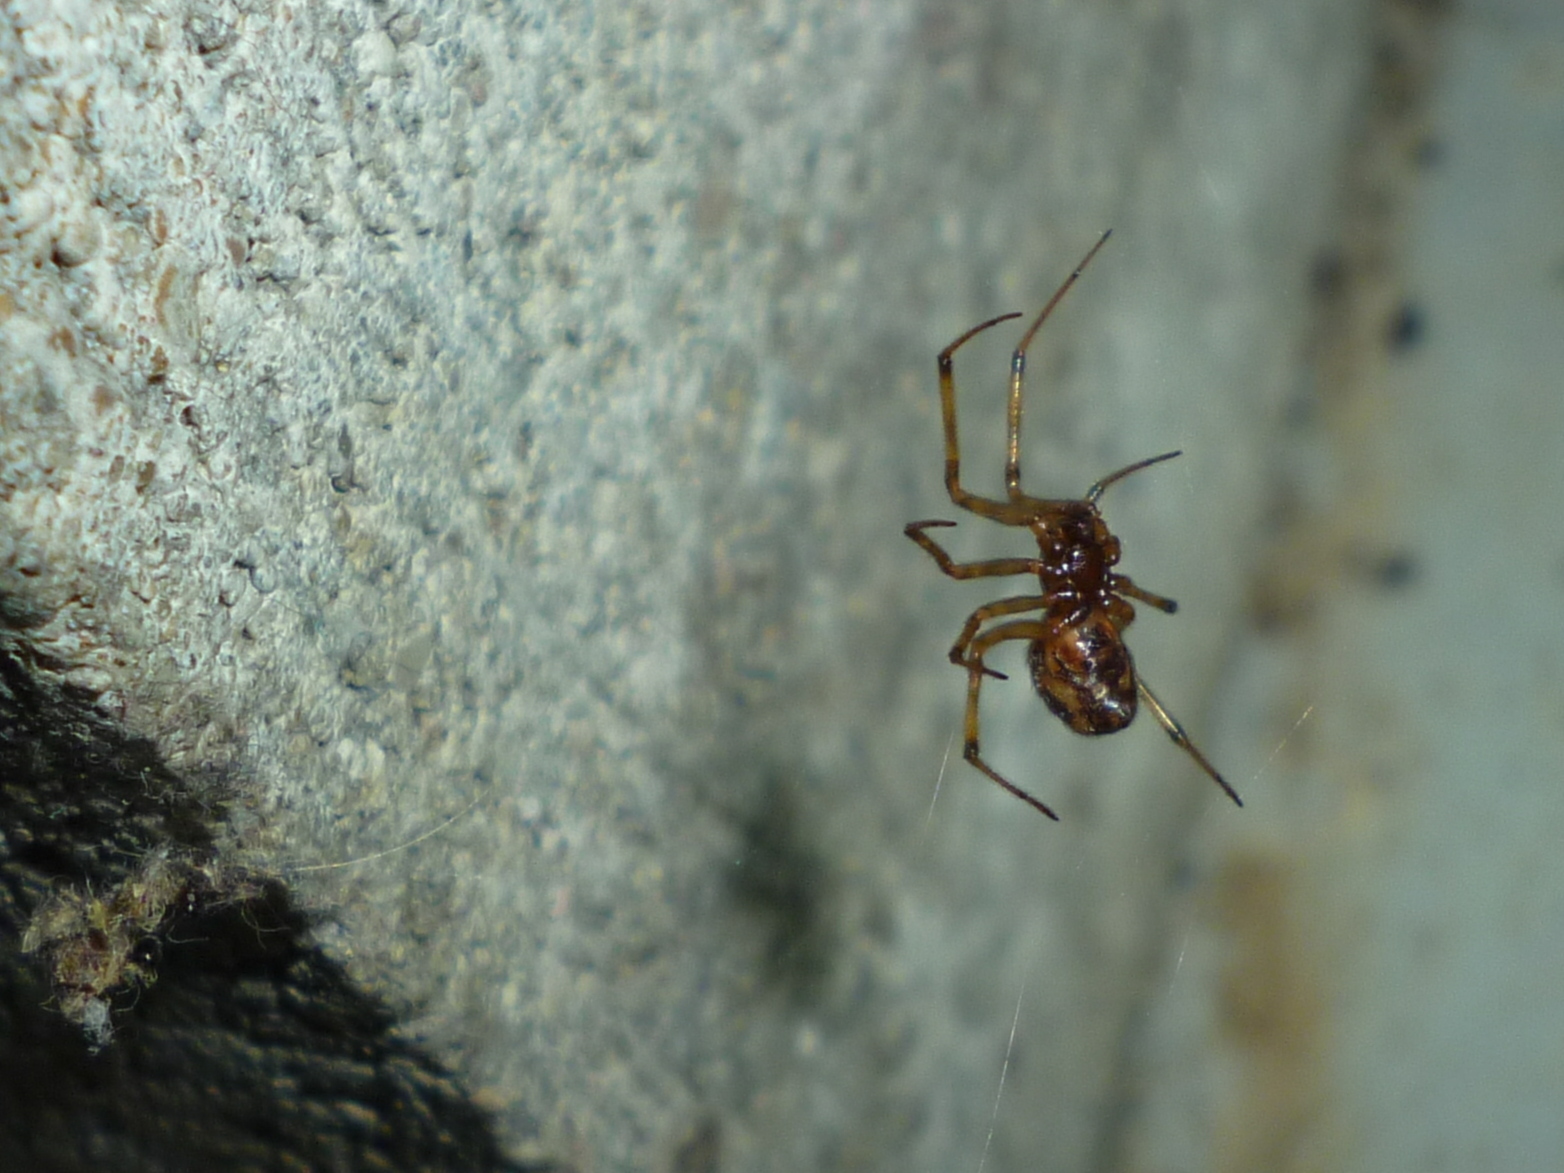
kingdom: Animalia
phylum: Arthropoda
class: Arachnida
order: Araneae
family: Theridiidae
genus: Steatoda
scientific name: Steatoda triangulosa
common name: Triangulate bud spider
